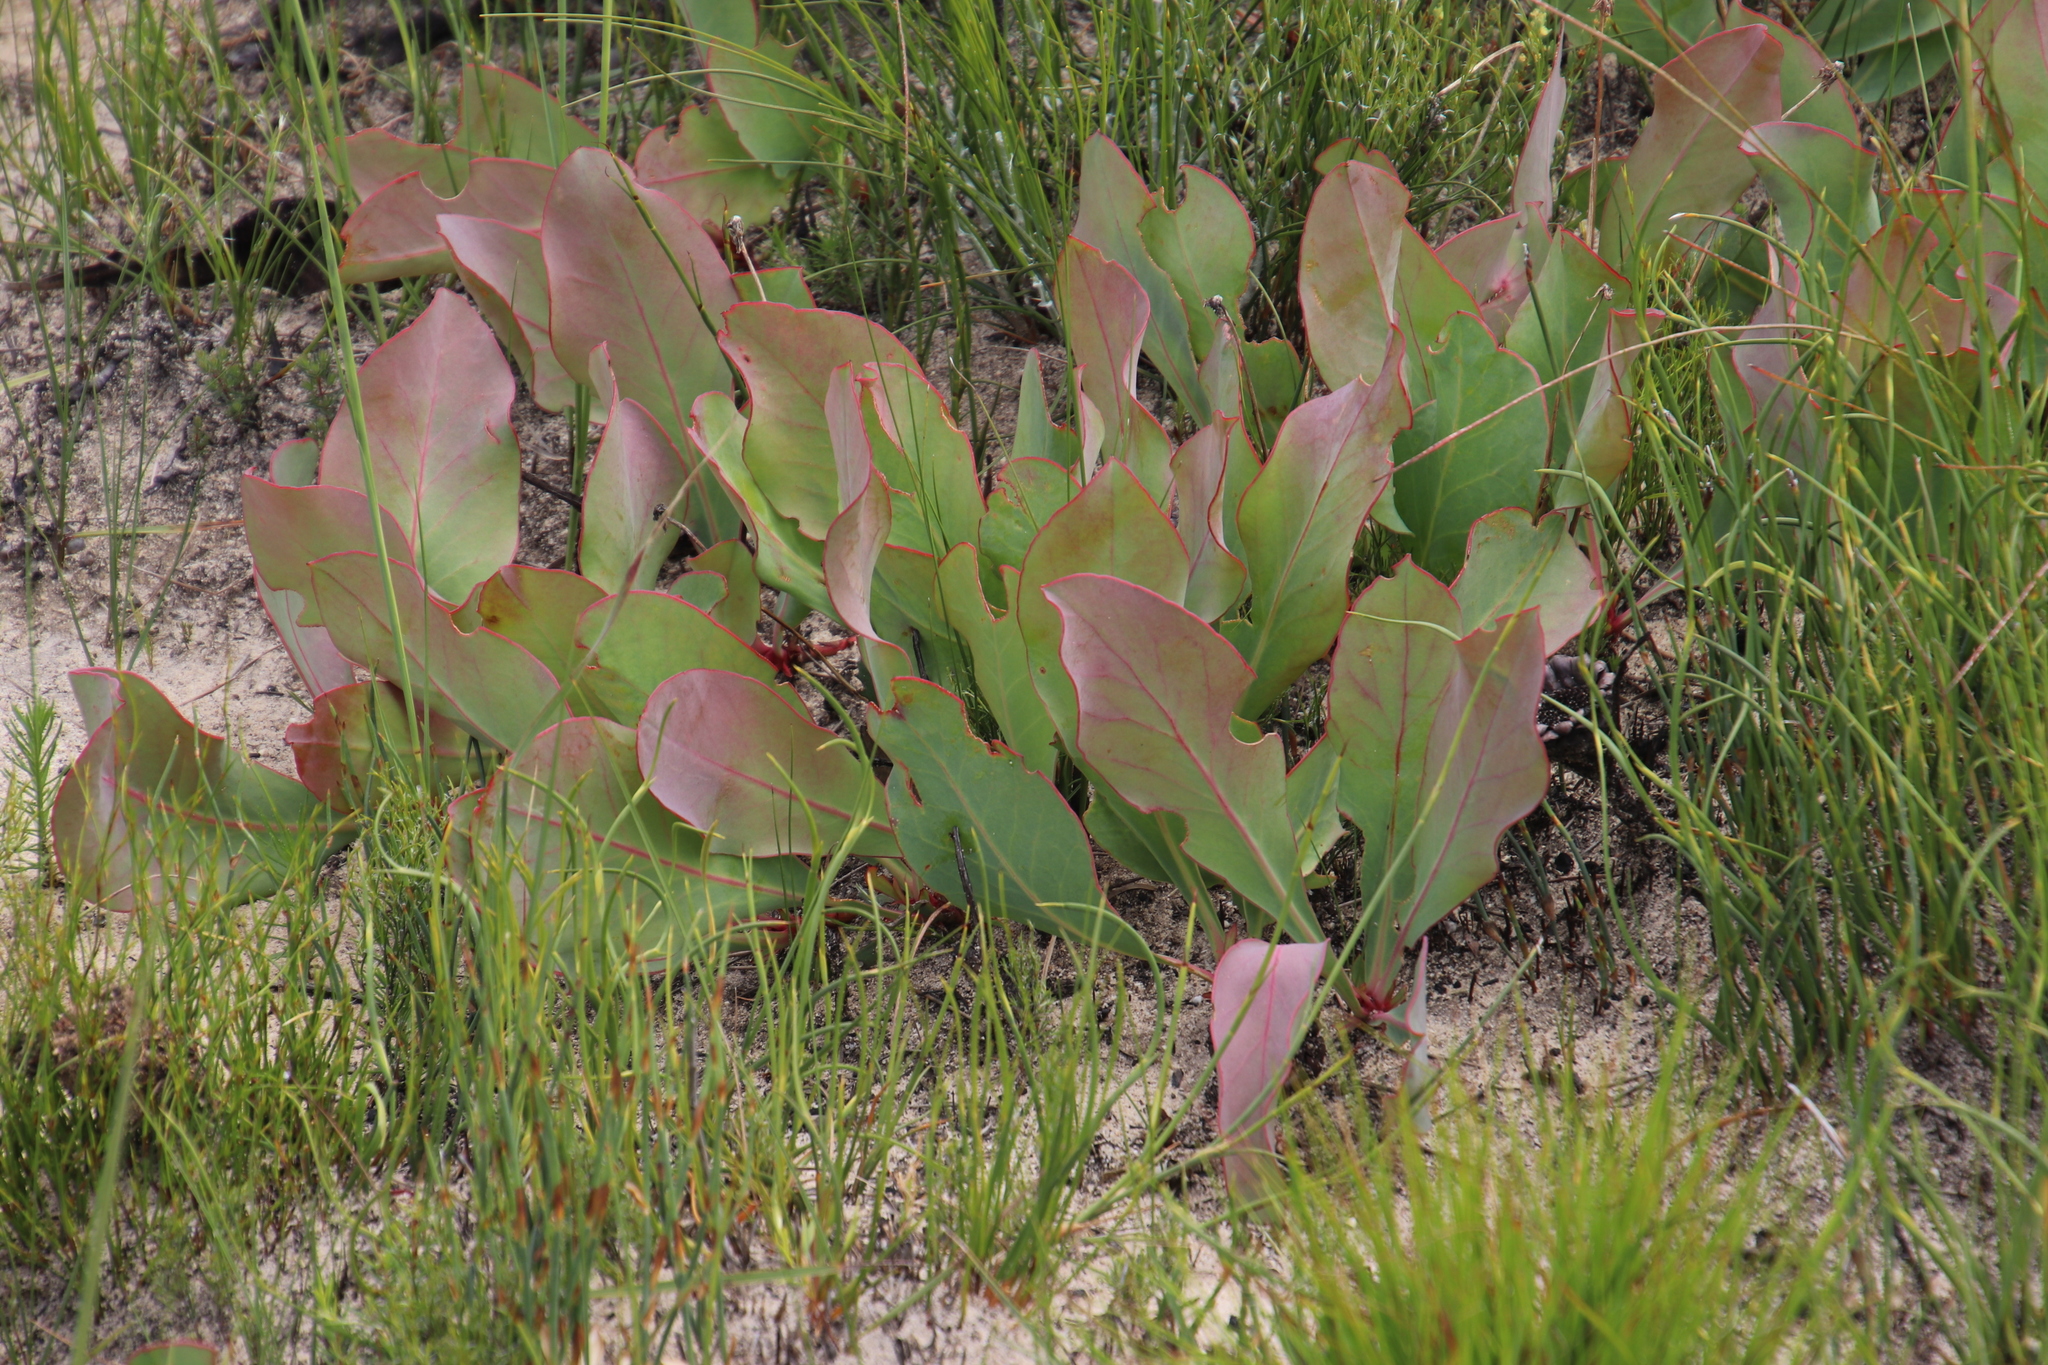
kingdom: Plantae
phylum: Tracheophyta
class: Magnoliopsida
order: Proteales
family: Proteaceae
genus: Protea
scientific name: Protea acaulos
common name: Common ground sugarbush
